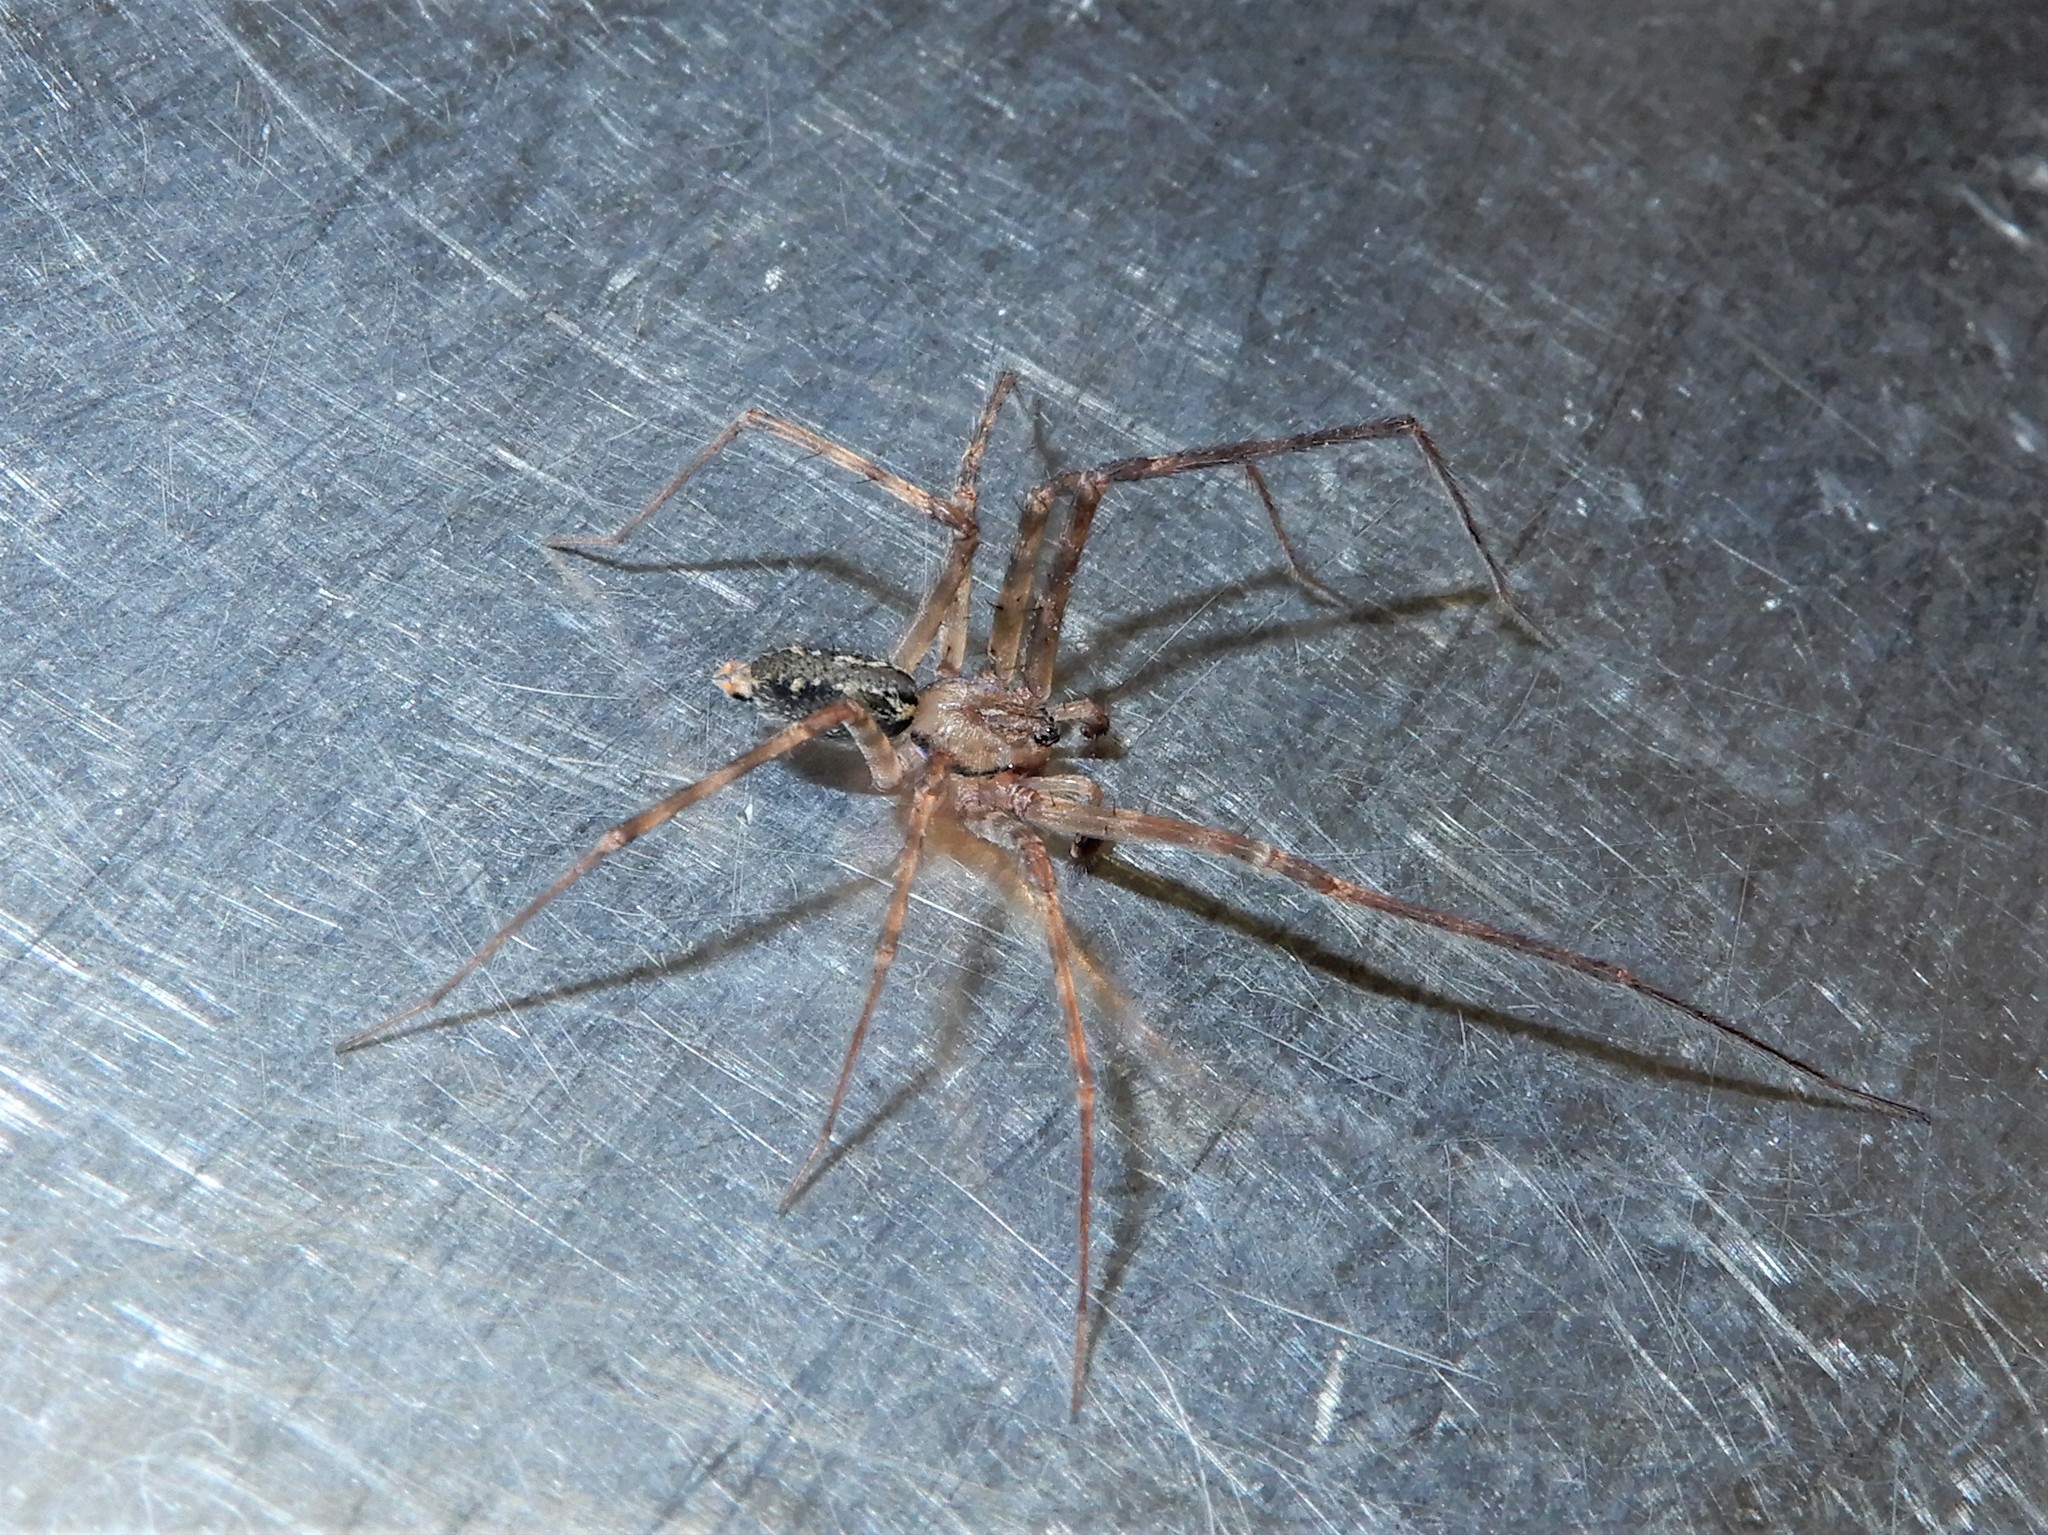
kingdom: Animalia
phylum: Arthropoda
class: Arachnida
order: Araneae
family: Stiphidiidae
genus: Stiphidion
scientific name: Stiphidion facetum
